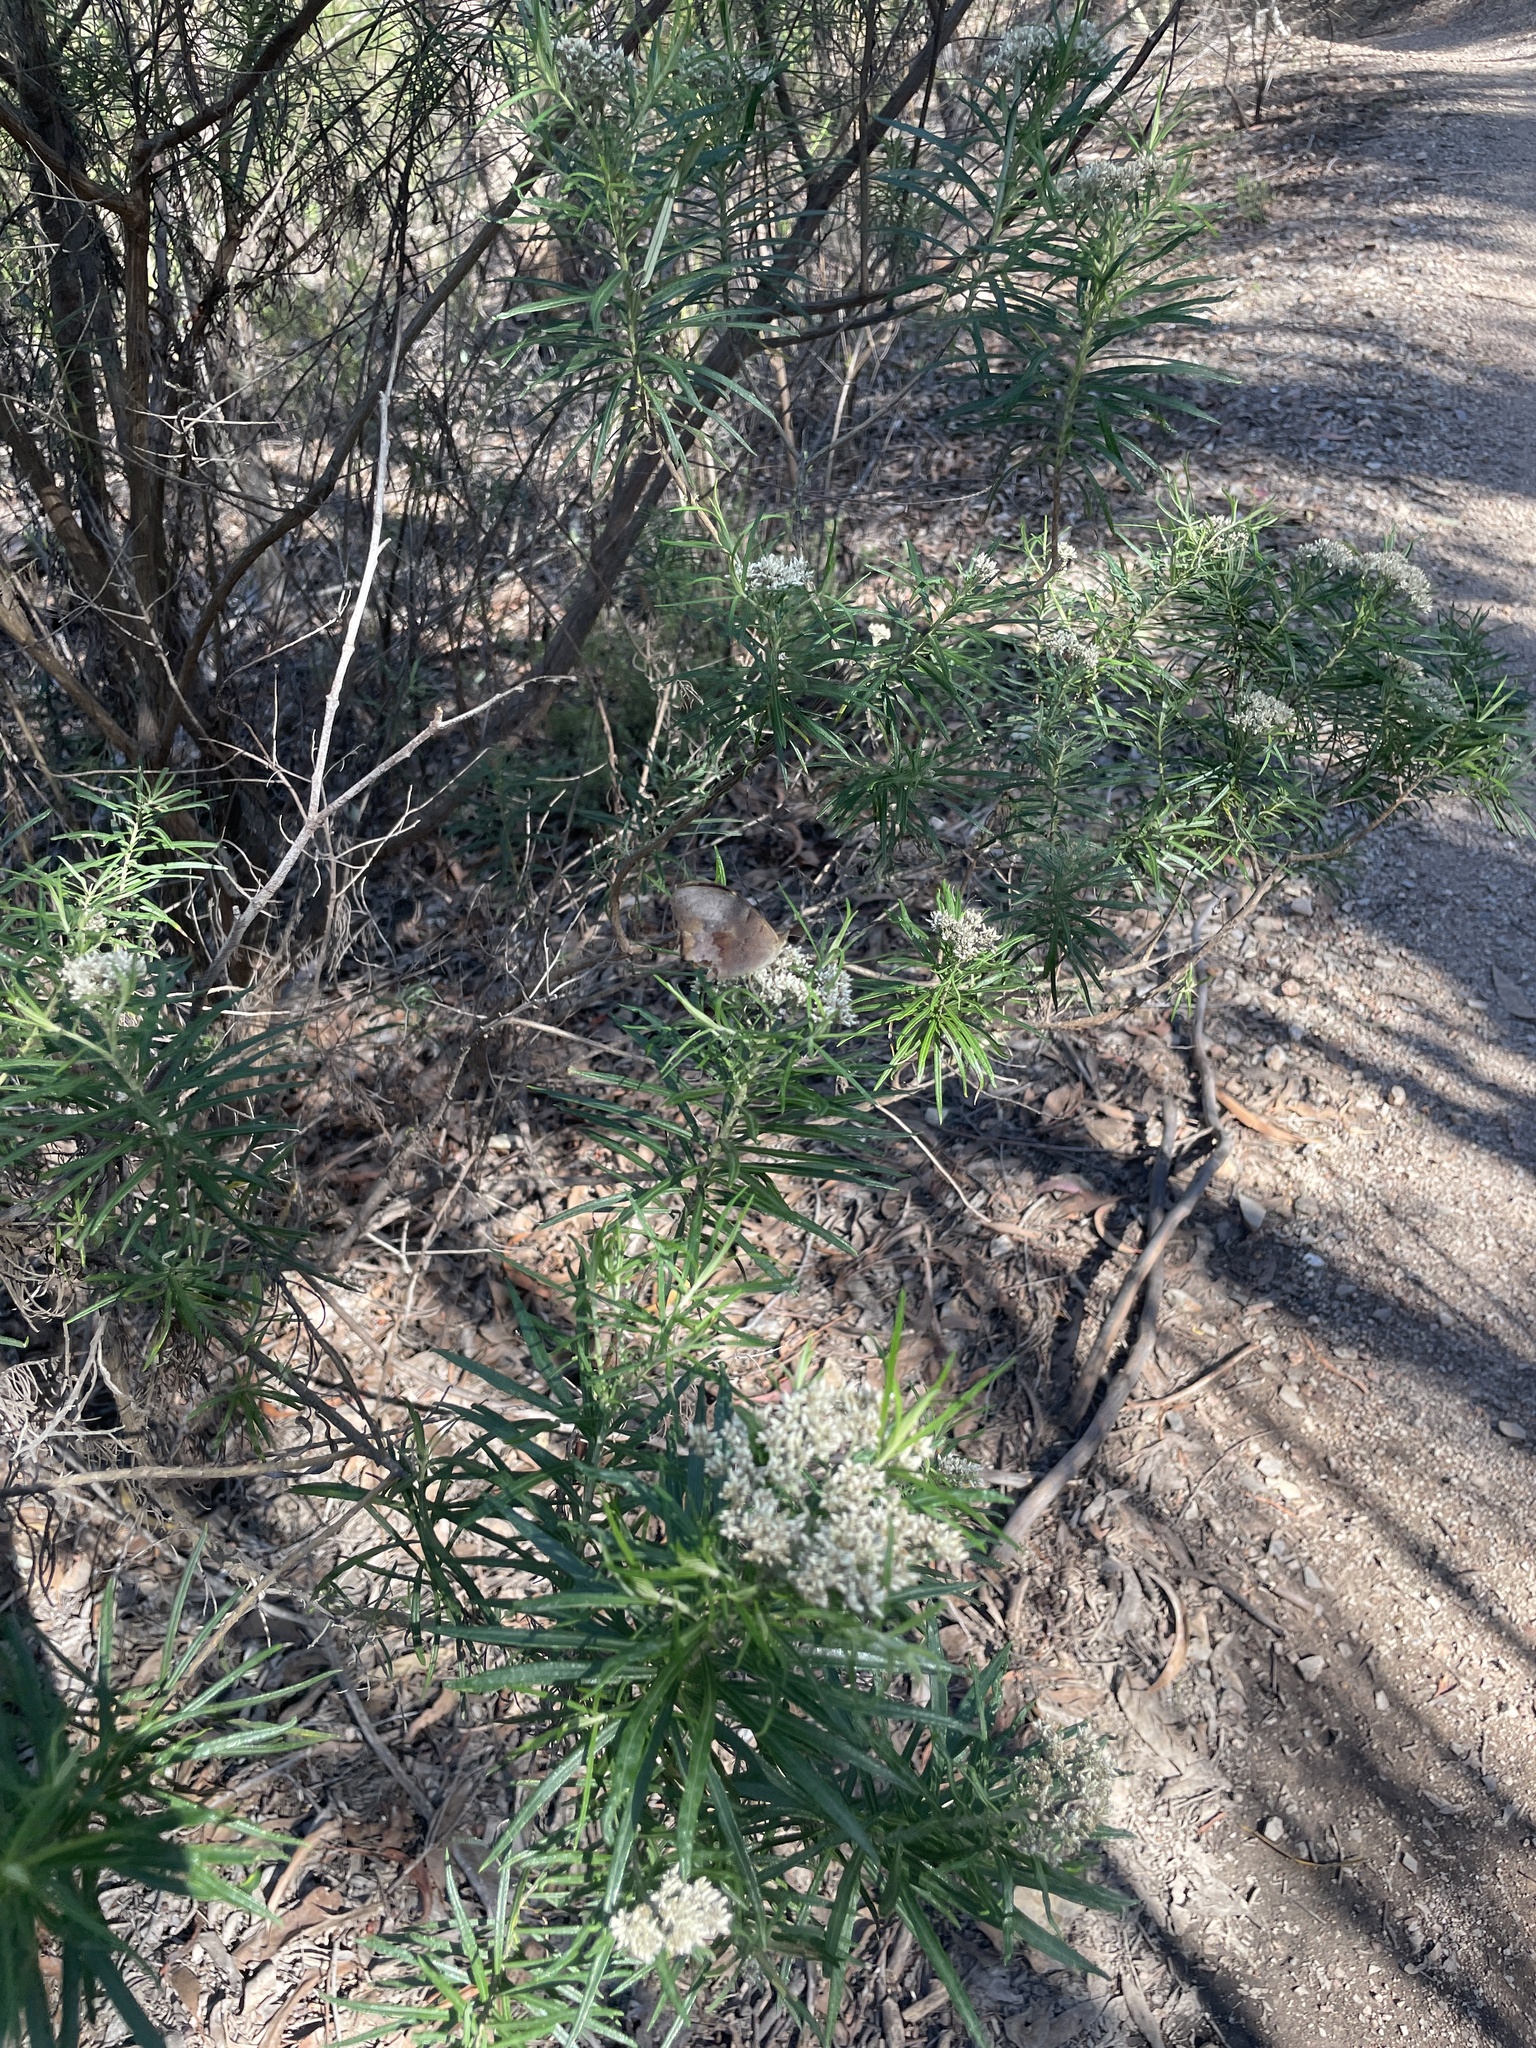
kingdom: Animalia
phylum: Arthropoda
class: Insecta
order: Lepidoptera
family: Nymphalidae
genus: Heteronympha
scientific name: Heteronympha merope
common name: Common brown
